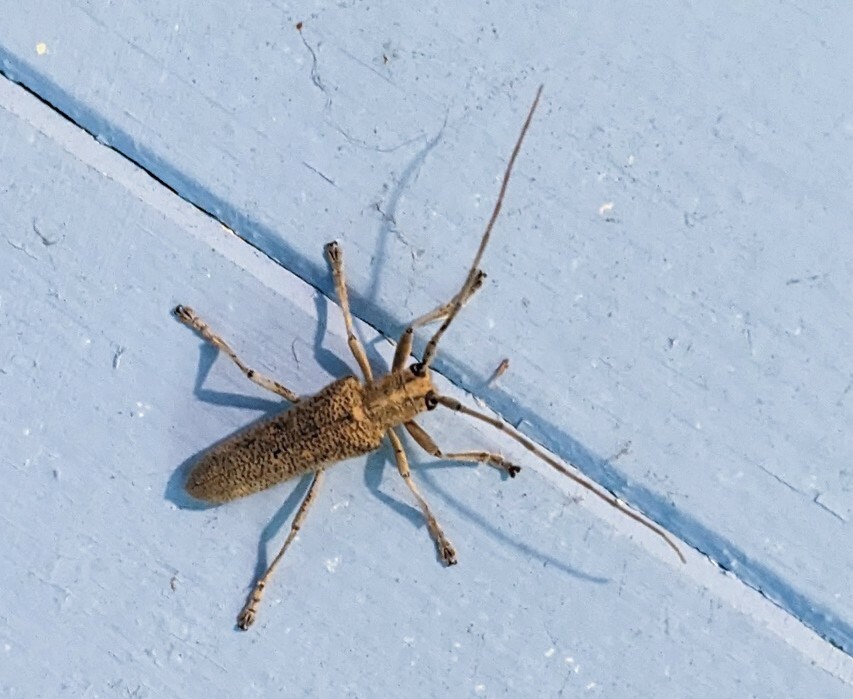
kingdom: Animalia
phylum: Arthropoda
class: Insecta
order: Coleoptera
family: Cerambycidae
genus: Saperda
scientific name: Saperda calcarata
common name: Poplar borer
